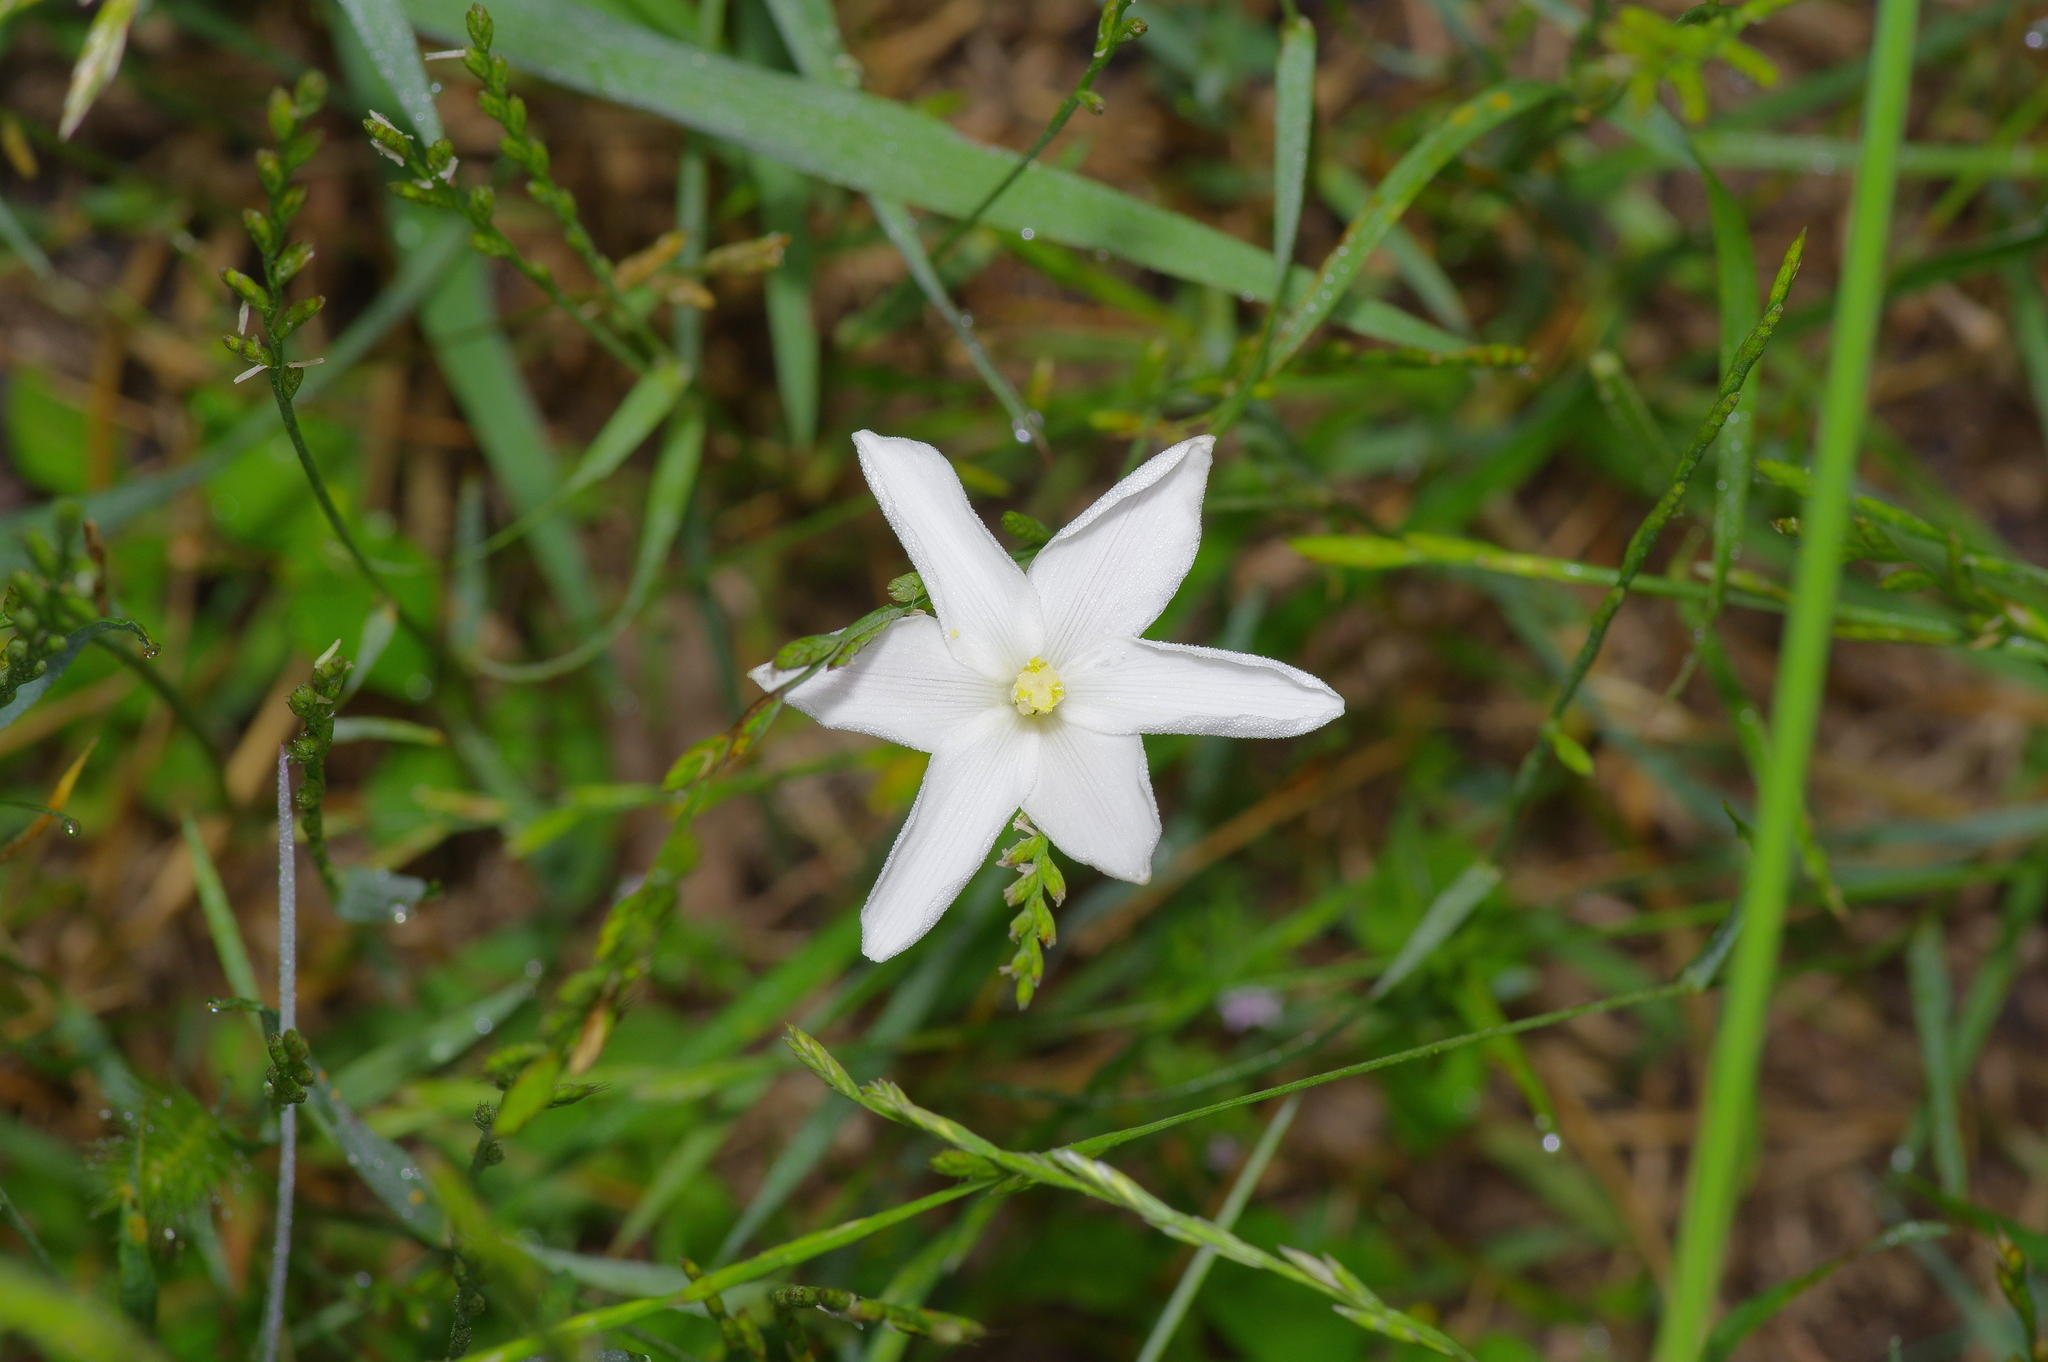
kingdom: Plantae
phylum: Tracheophyta
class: Liliopsida
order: Asparagales
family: Amaryllidaceae
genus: Zephyranthes
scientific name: Zephyranthes chlorosolen
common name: Evening rain-lily
